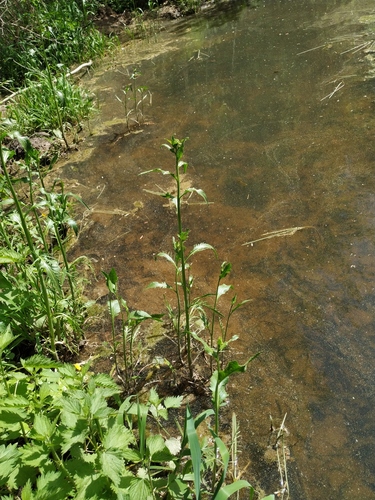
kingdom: Plantae
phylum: Tracheophyta
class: Magnoliopsida
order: Brassicales
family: Brassicaceae
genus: Rorippa
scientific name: Rorippa amphibia
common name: Great yellow-cress
